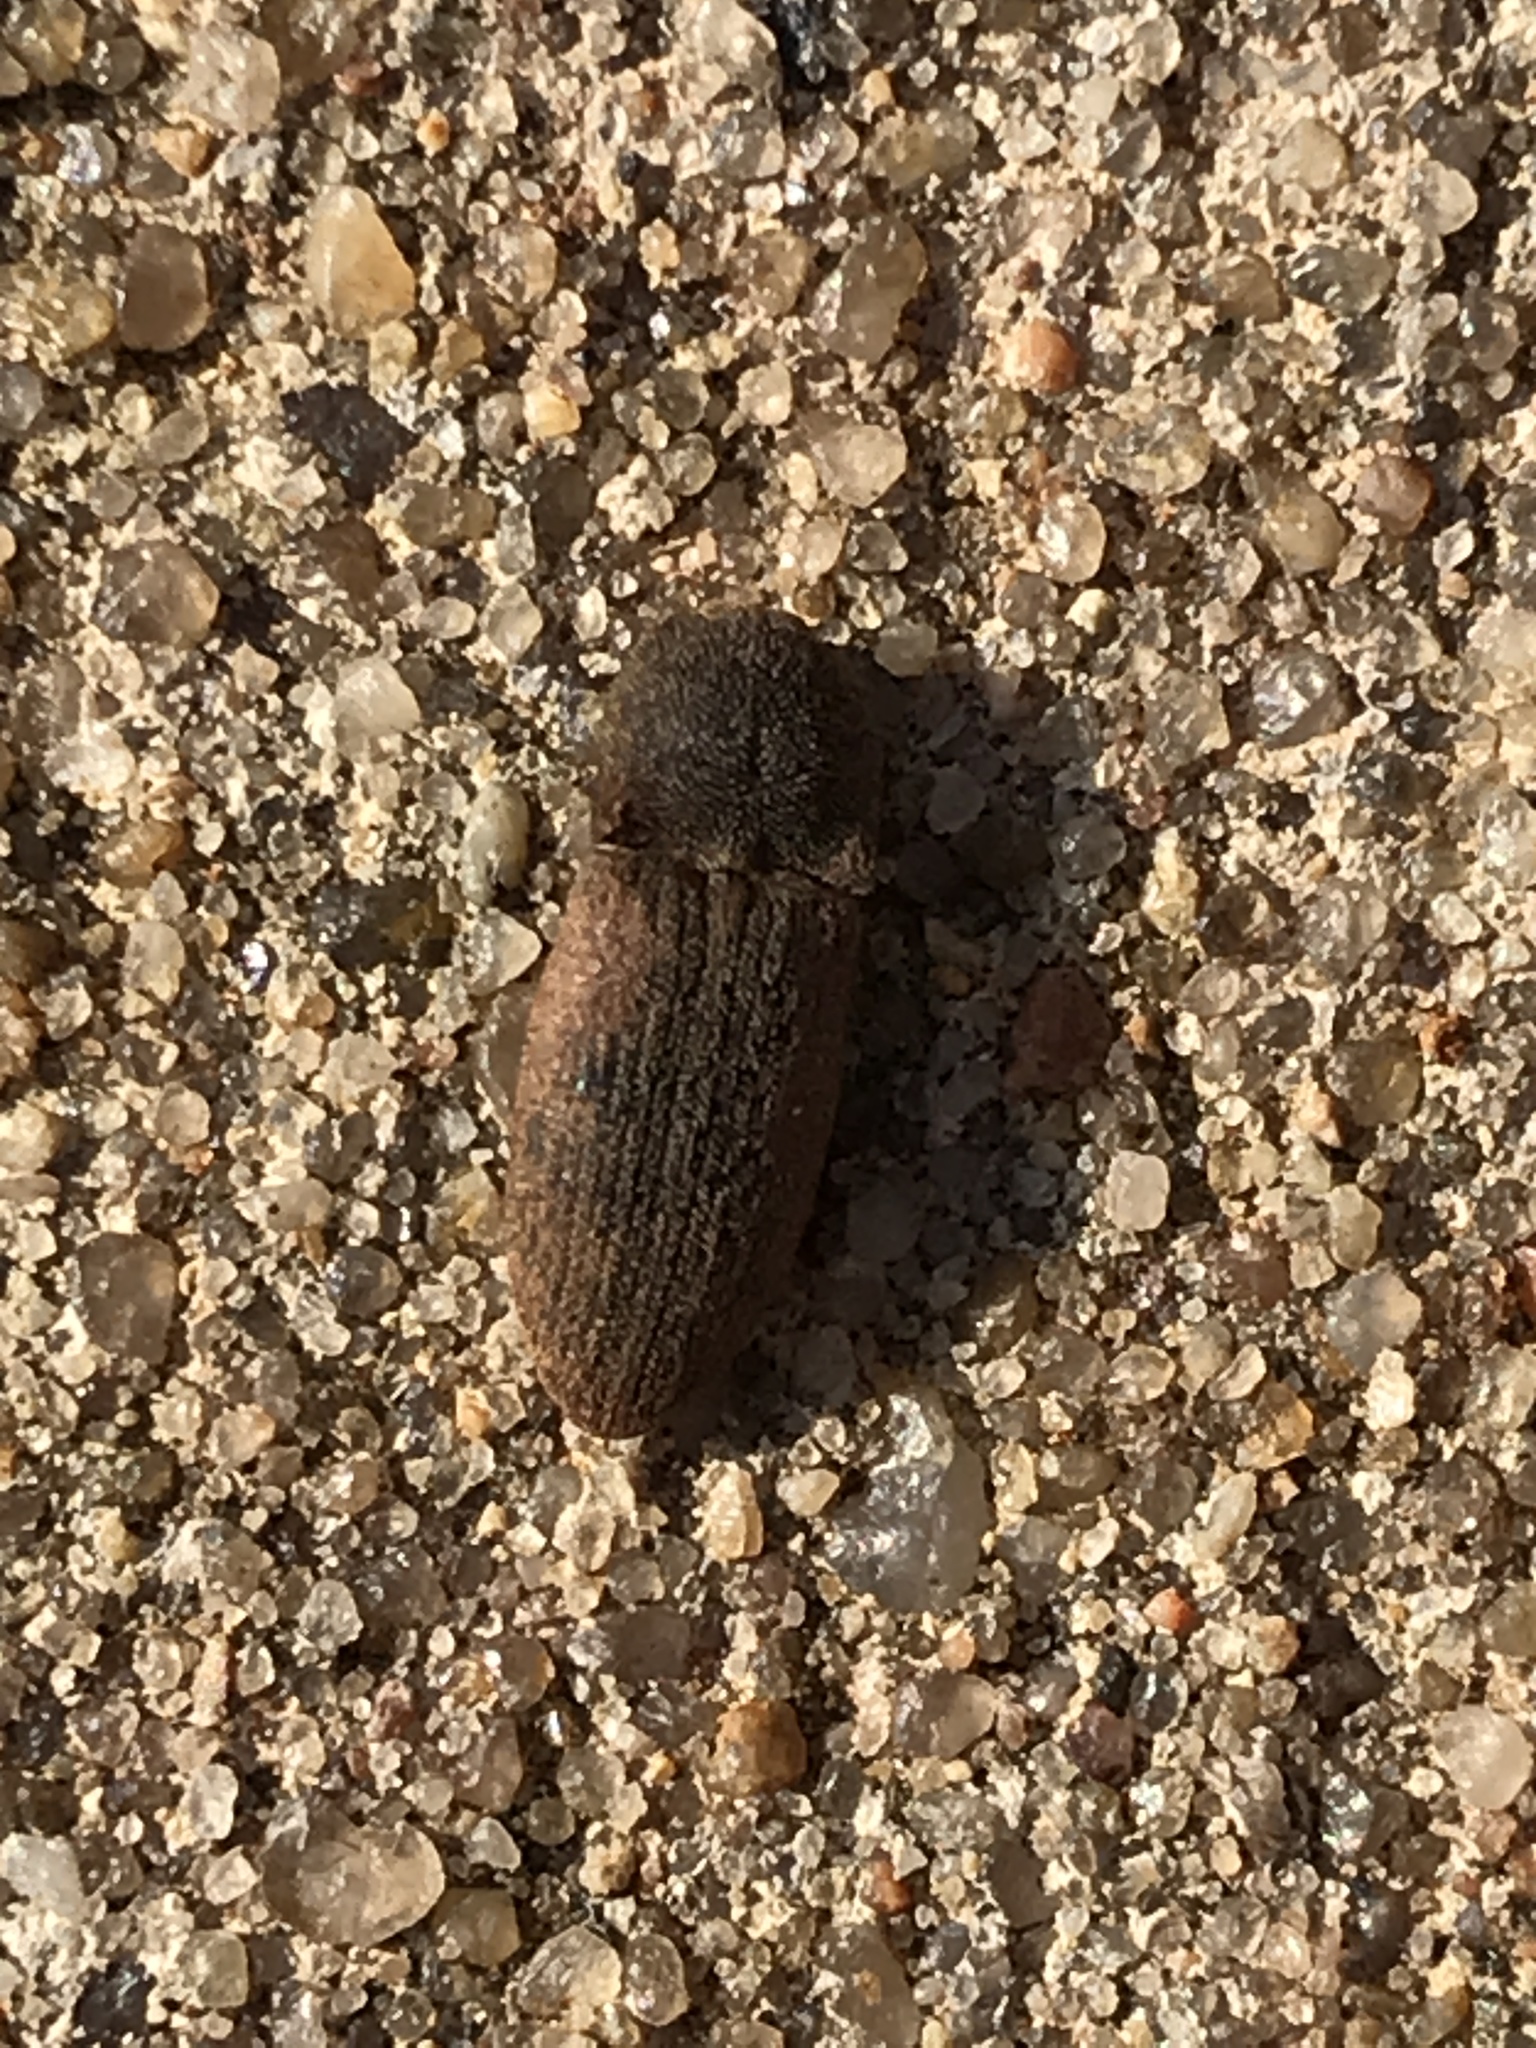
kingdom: Animalia
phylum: Arthropoda
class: Insecta
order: Coleoptera
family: Elateridae
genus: Agrypnus
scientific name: Agrypnus rectangularis
